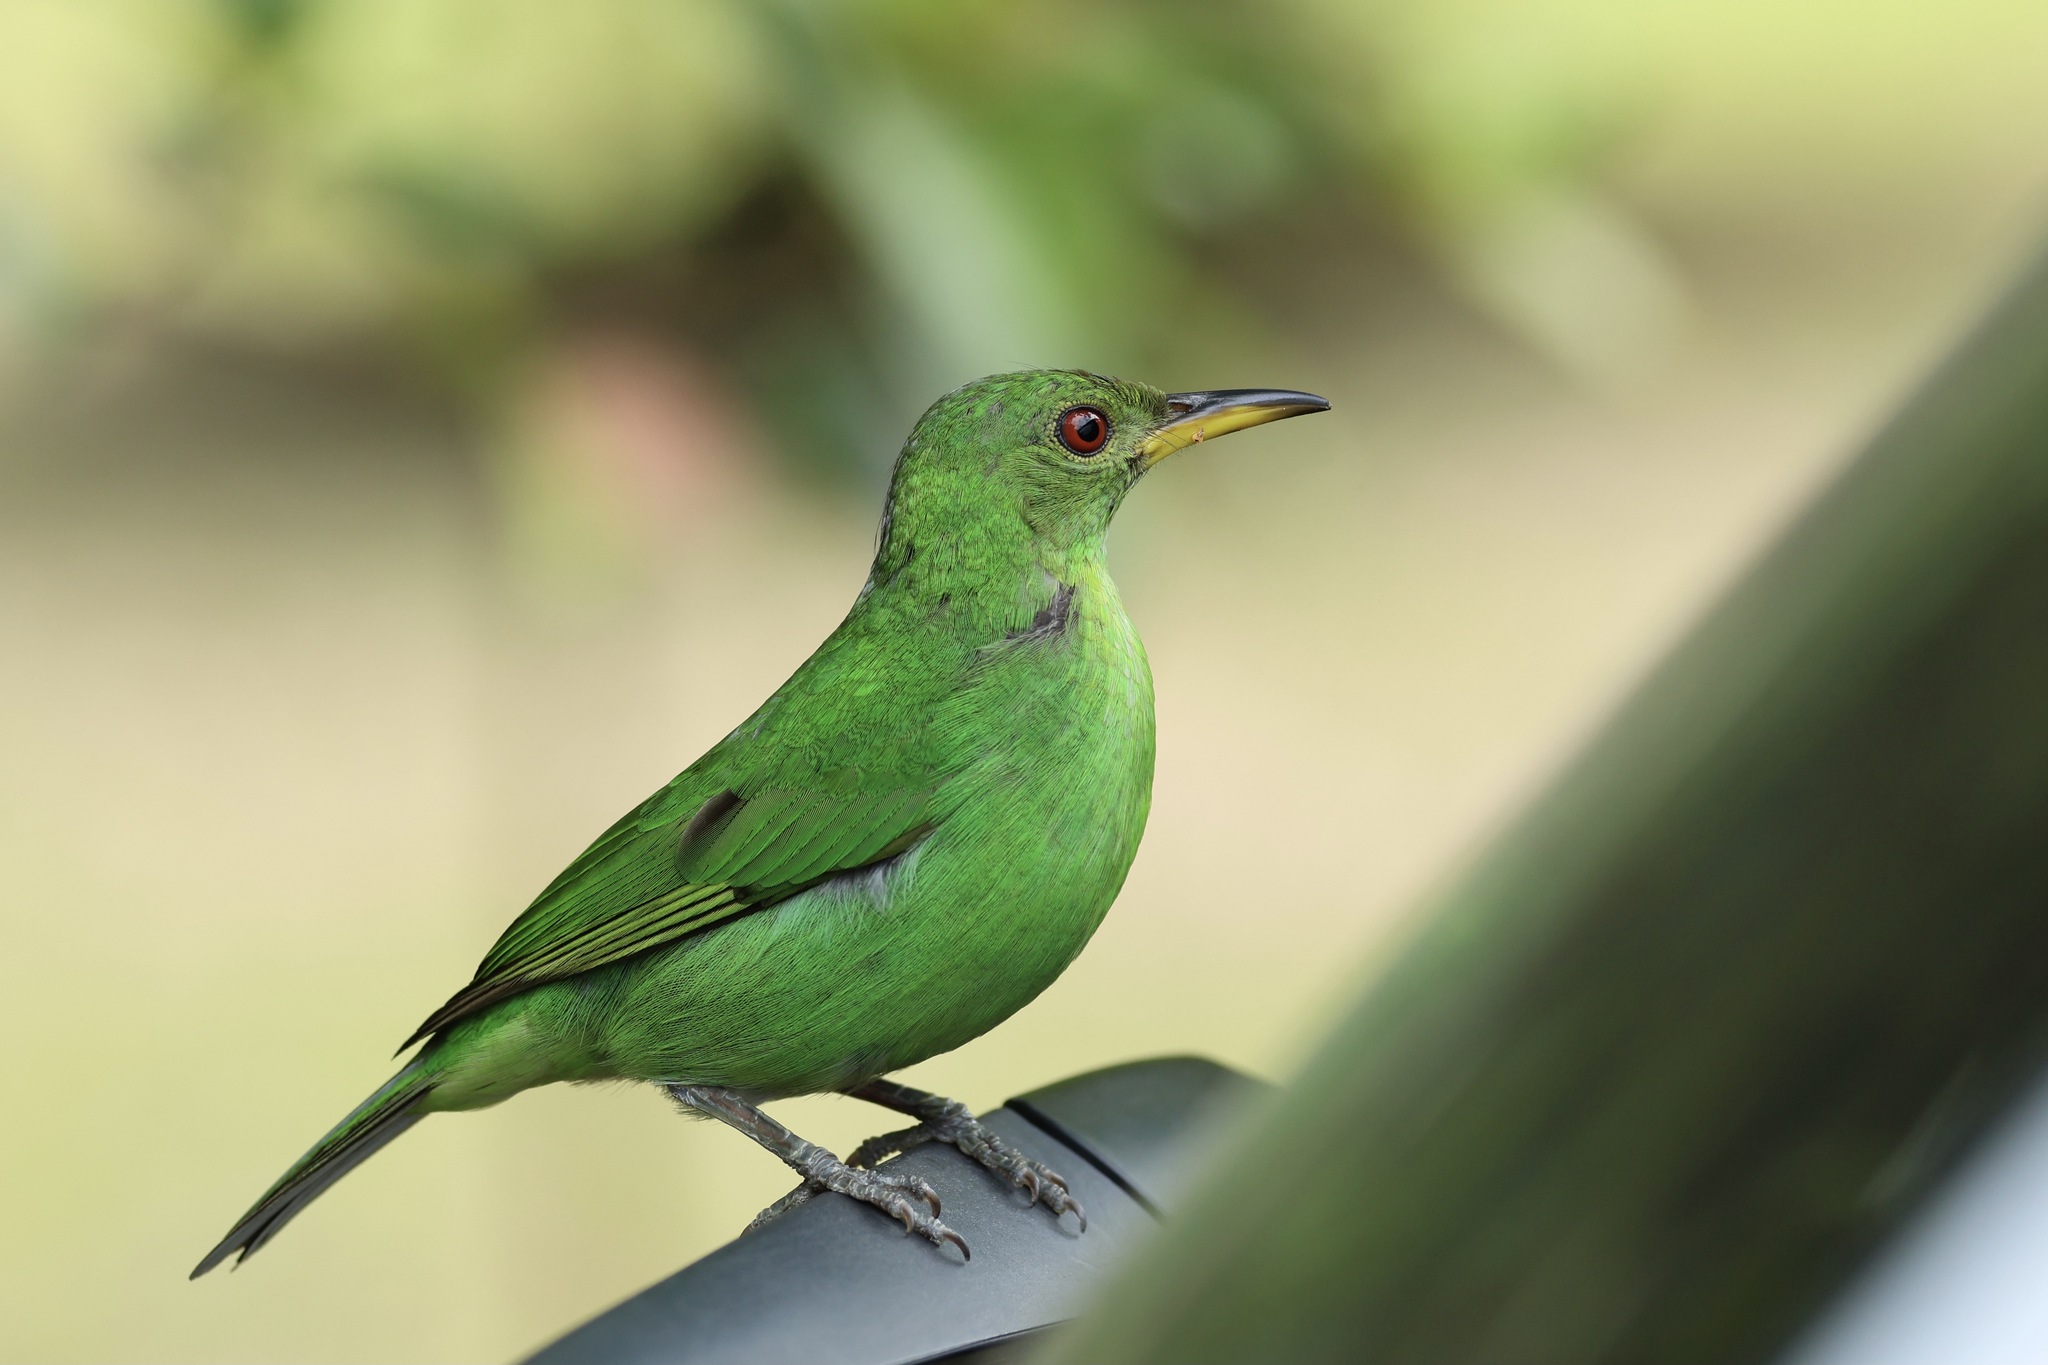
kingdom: Animalia
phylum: Chordata
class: Aves
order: Passeriformes
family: Thraupidae
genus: Chlorophanes
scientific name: Chlorophanes spiza
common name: Green honeycreeper
